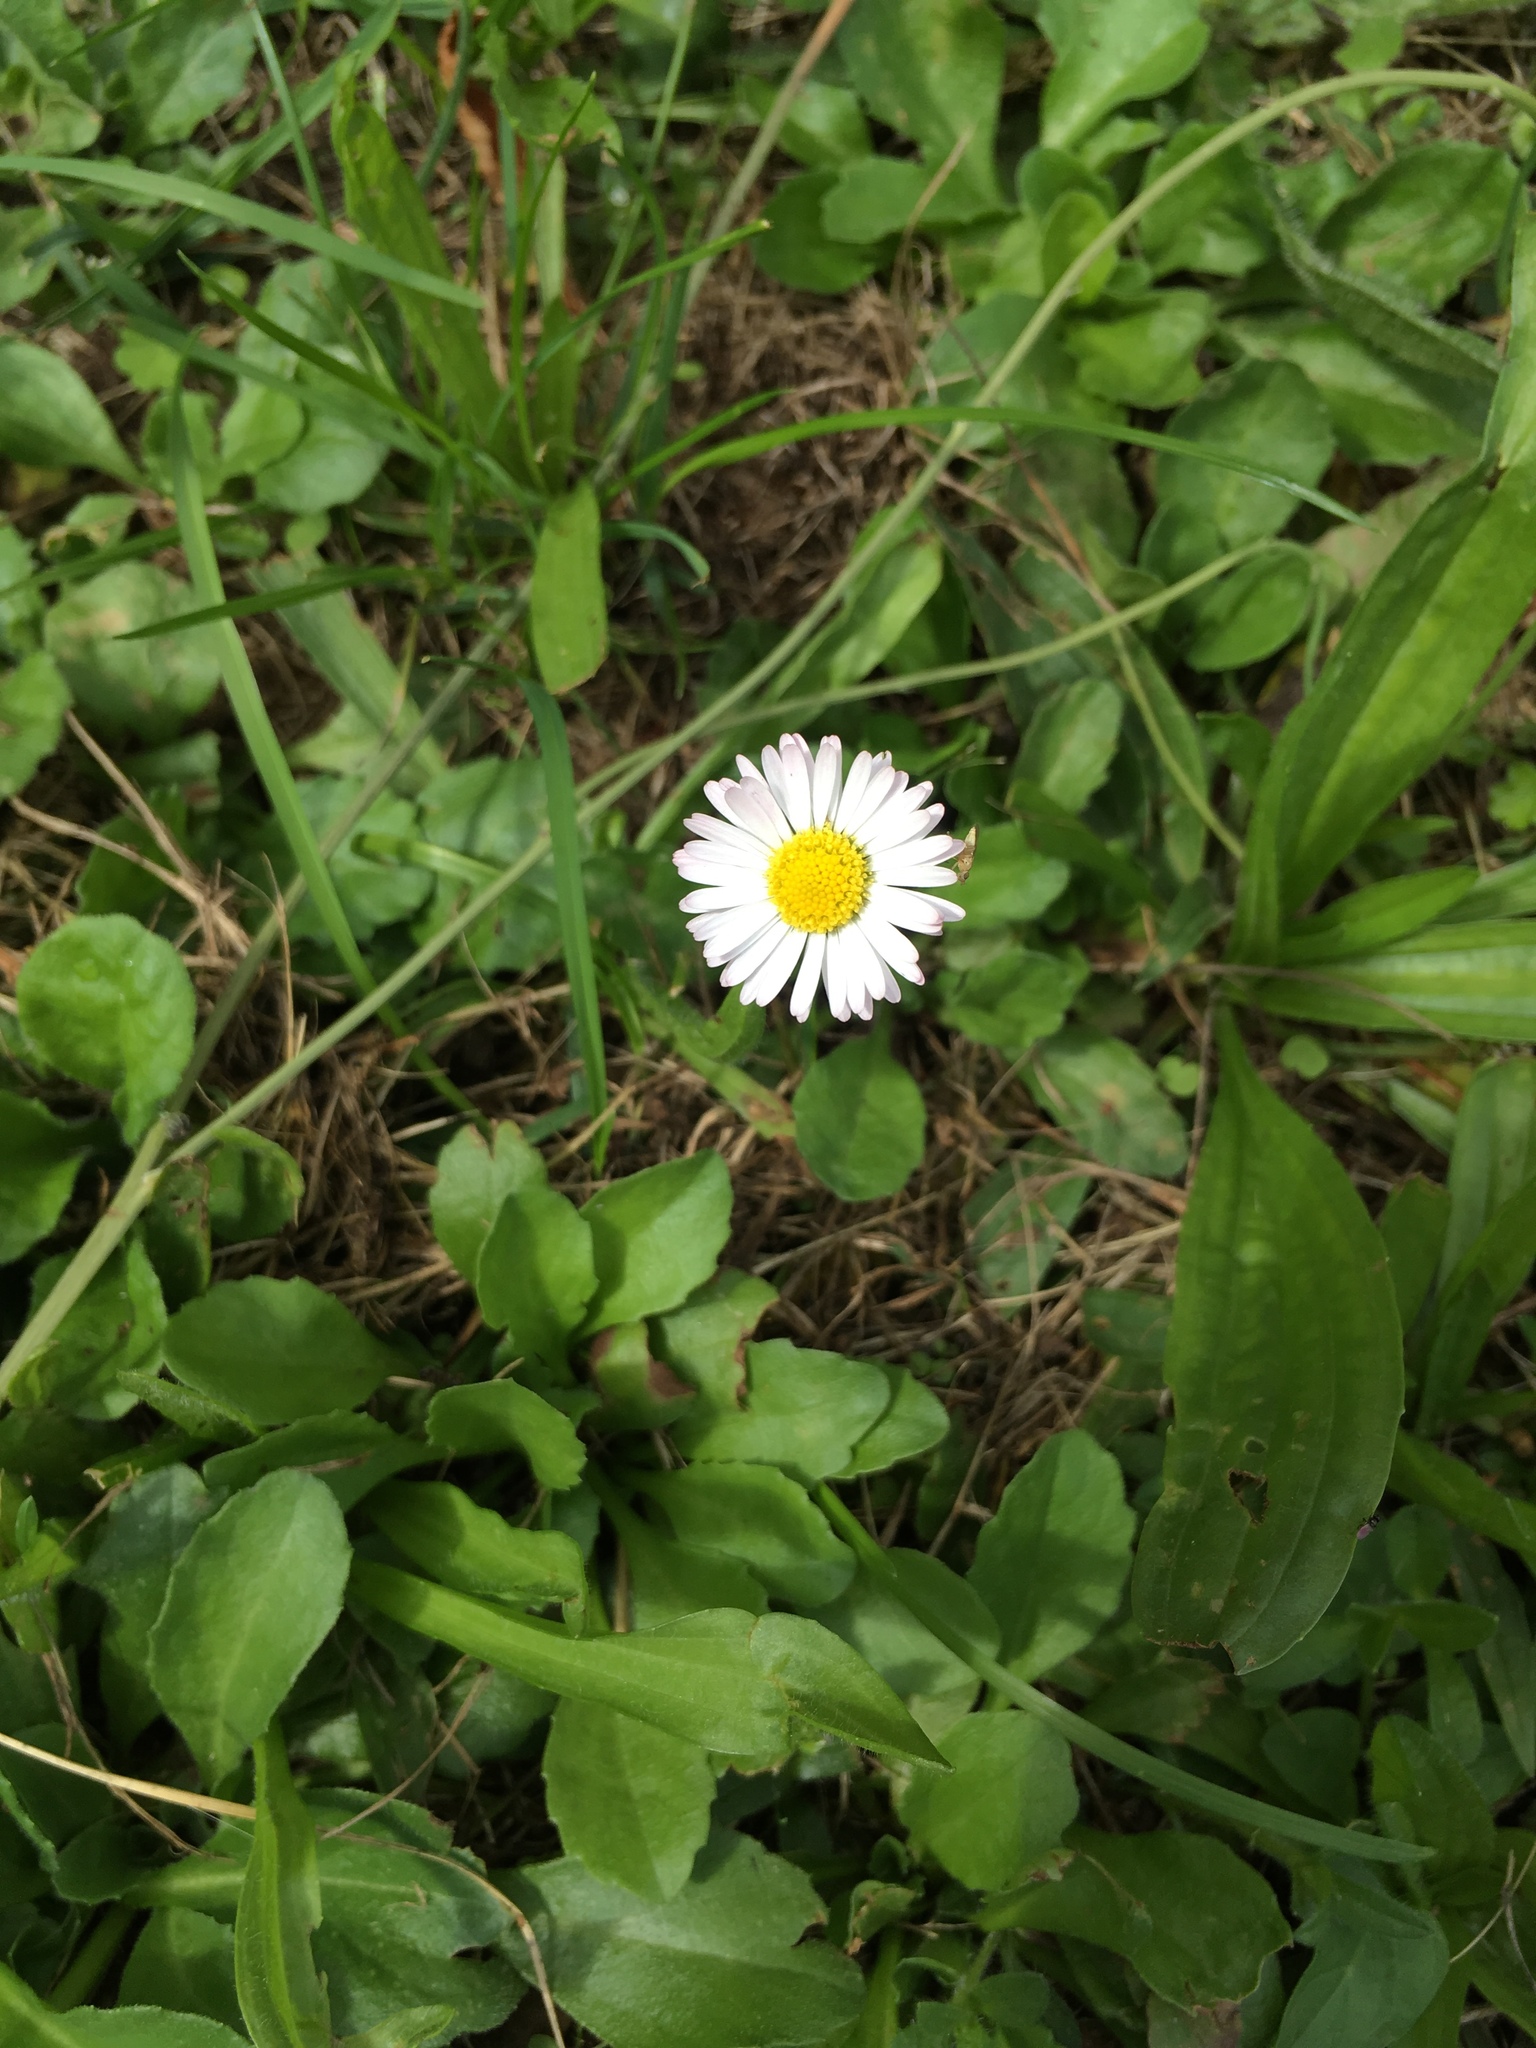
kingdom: Plantae
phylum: Tracheophyta
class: Magnoliopsida
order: Asterales
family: Asteraceae
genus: Bellis
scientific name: Bellis perennis
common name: Lawndaisy
